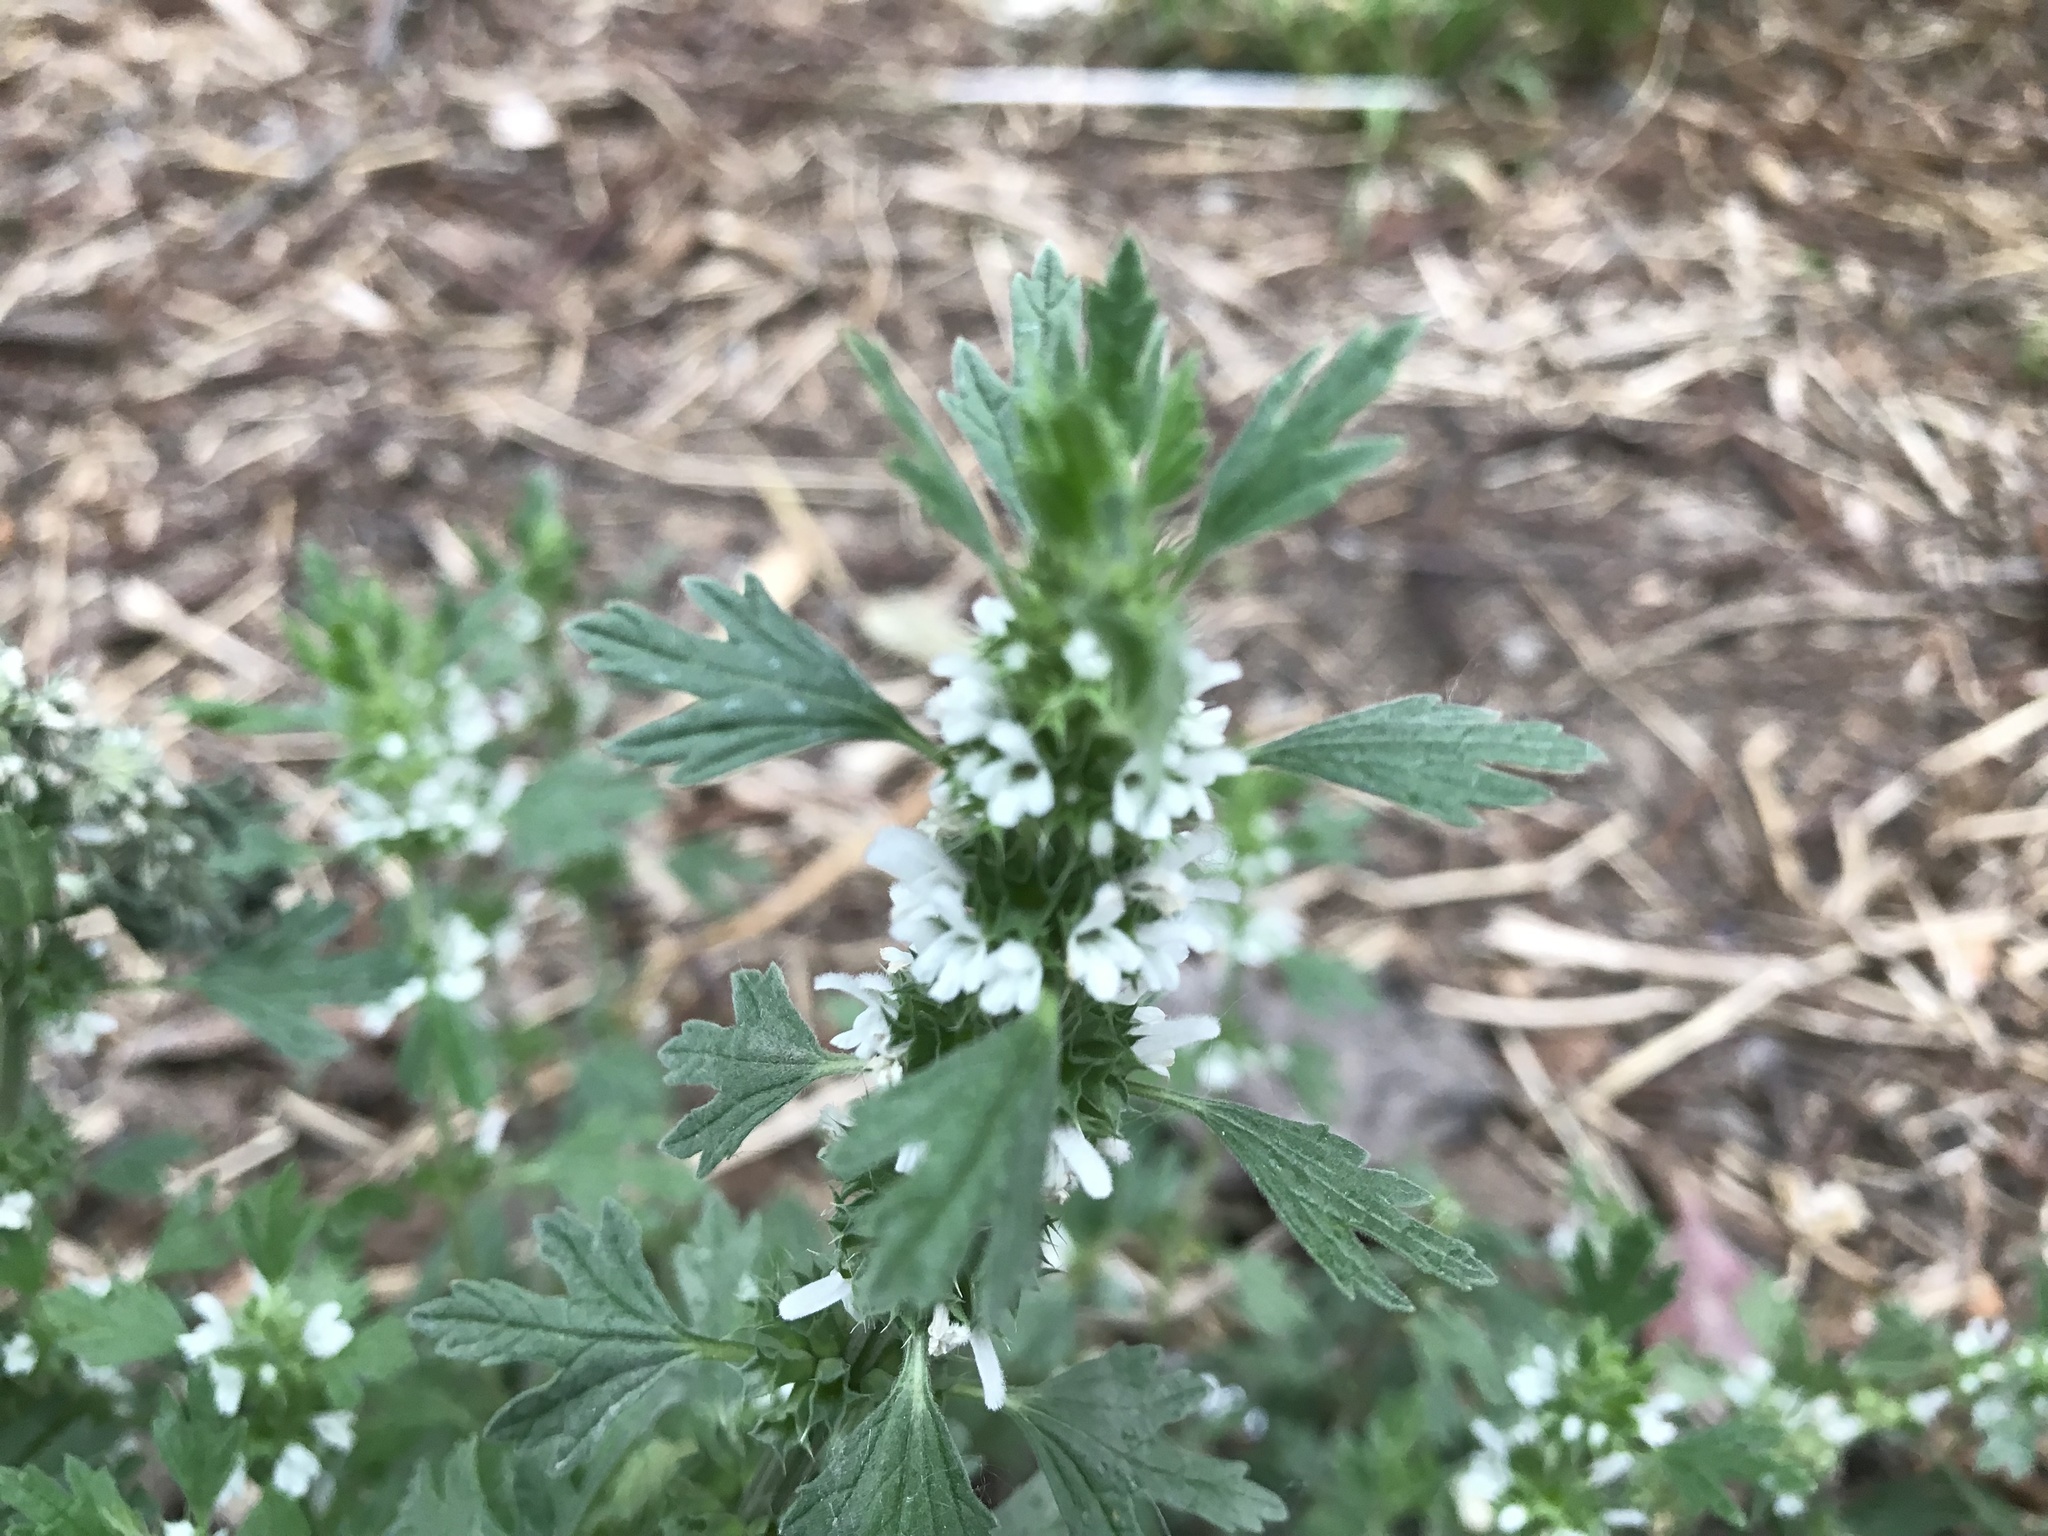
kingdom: Plantae
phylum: Tracheophyta
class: Magnoliopsida
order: Lamiales
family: Lamiaceae
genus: Lagopsis
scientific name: Lagopsis supina
